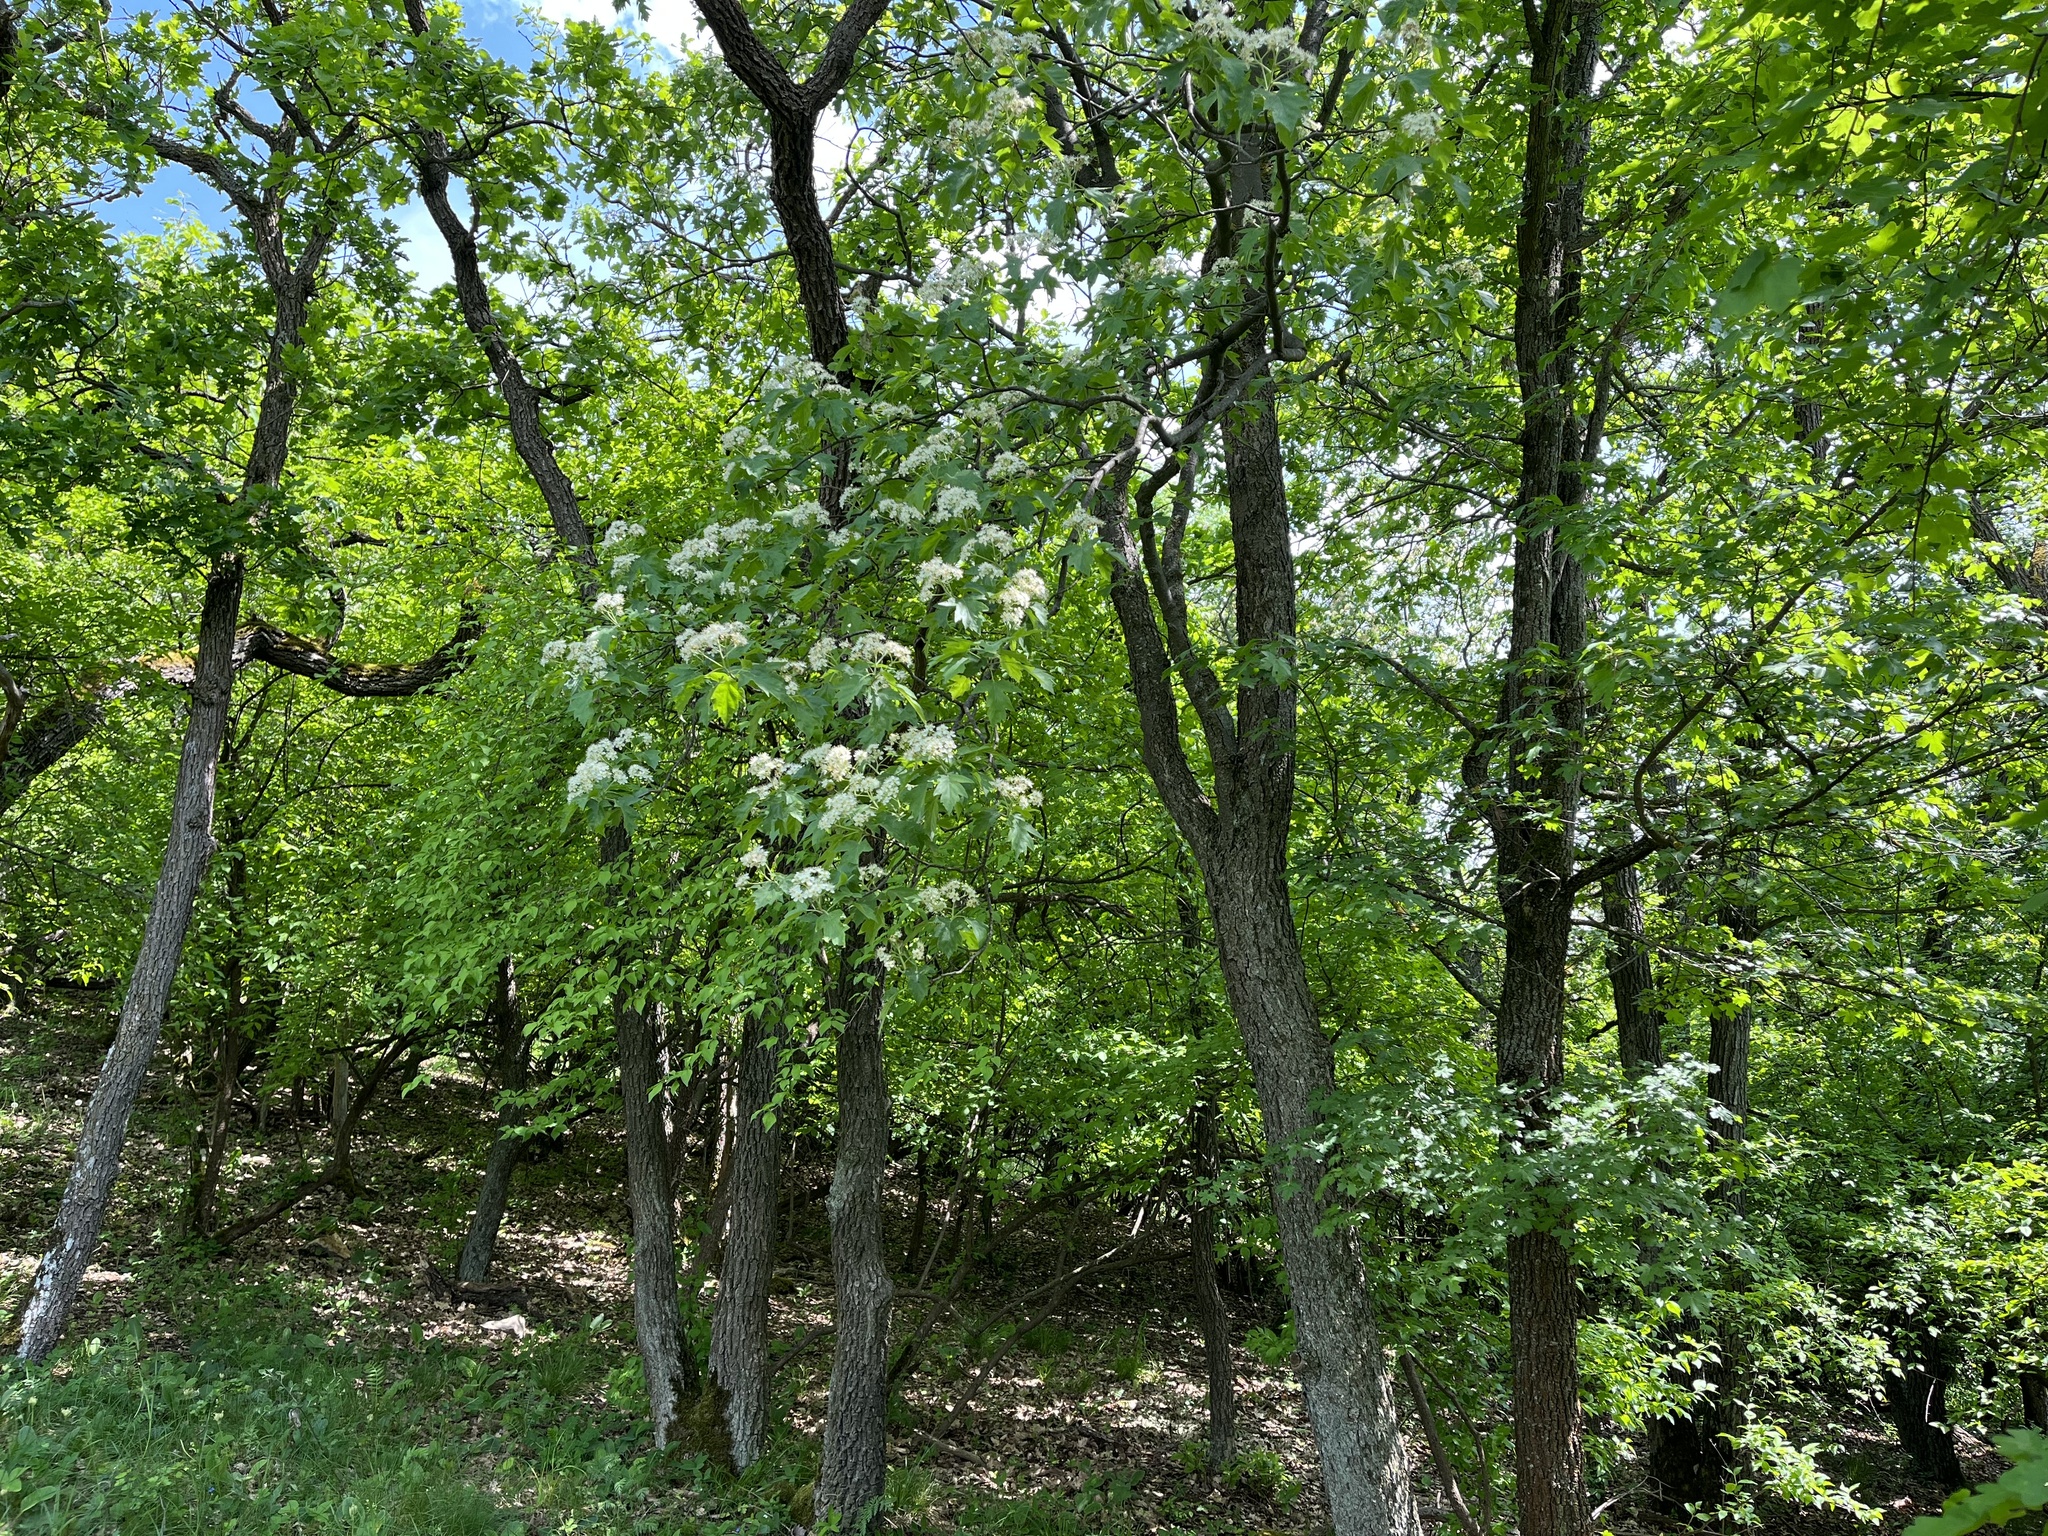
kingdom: Plantae
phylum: Tracheophyta
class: Magnoliopsida
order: Rosales
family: Rosaceae
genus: Torminalis
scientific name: Torminalis glaberrima
